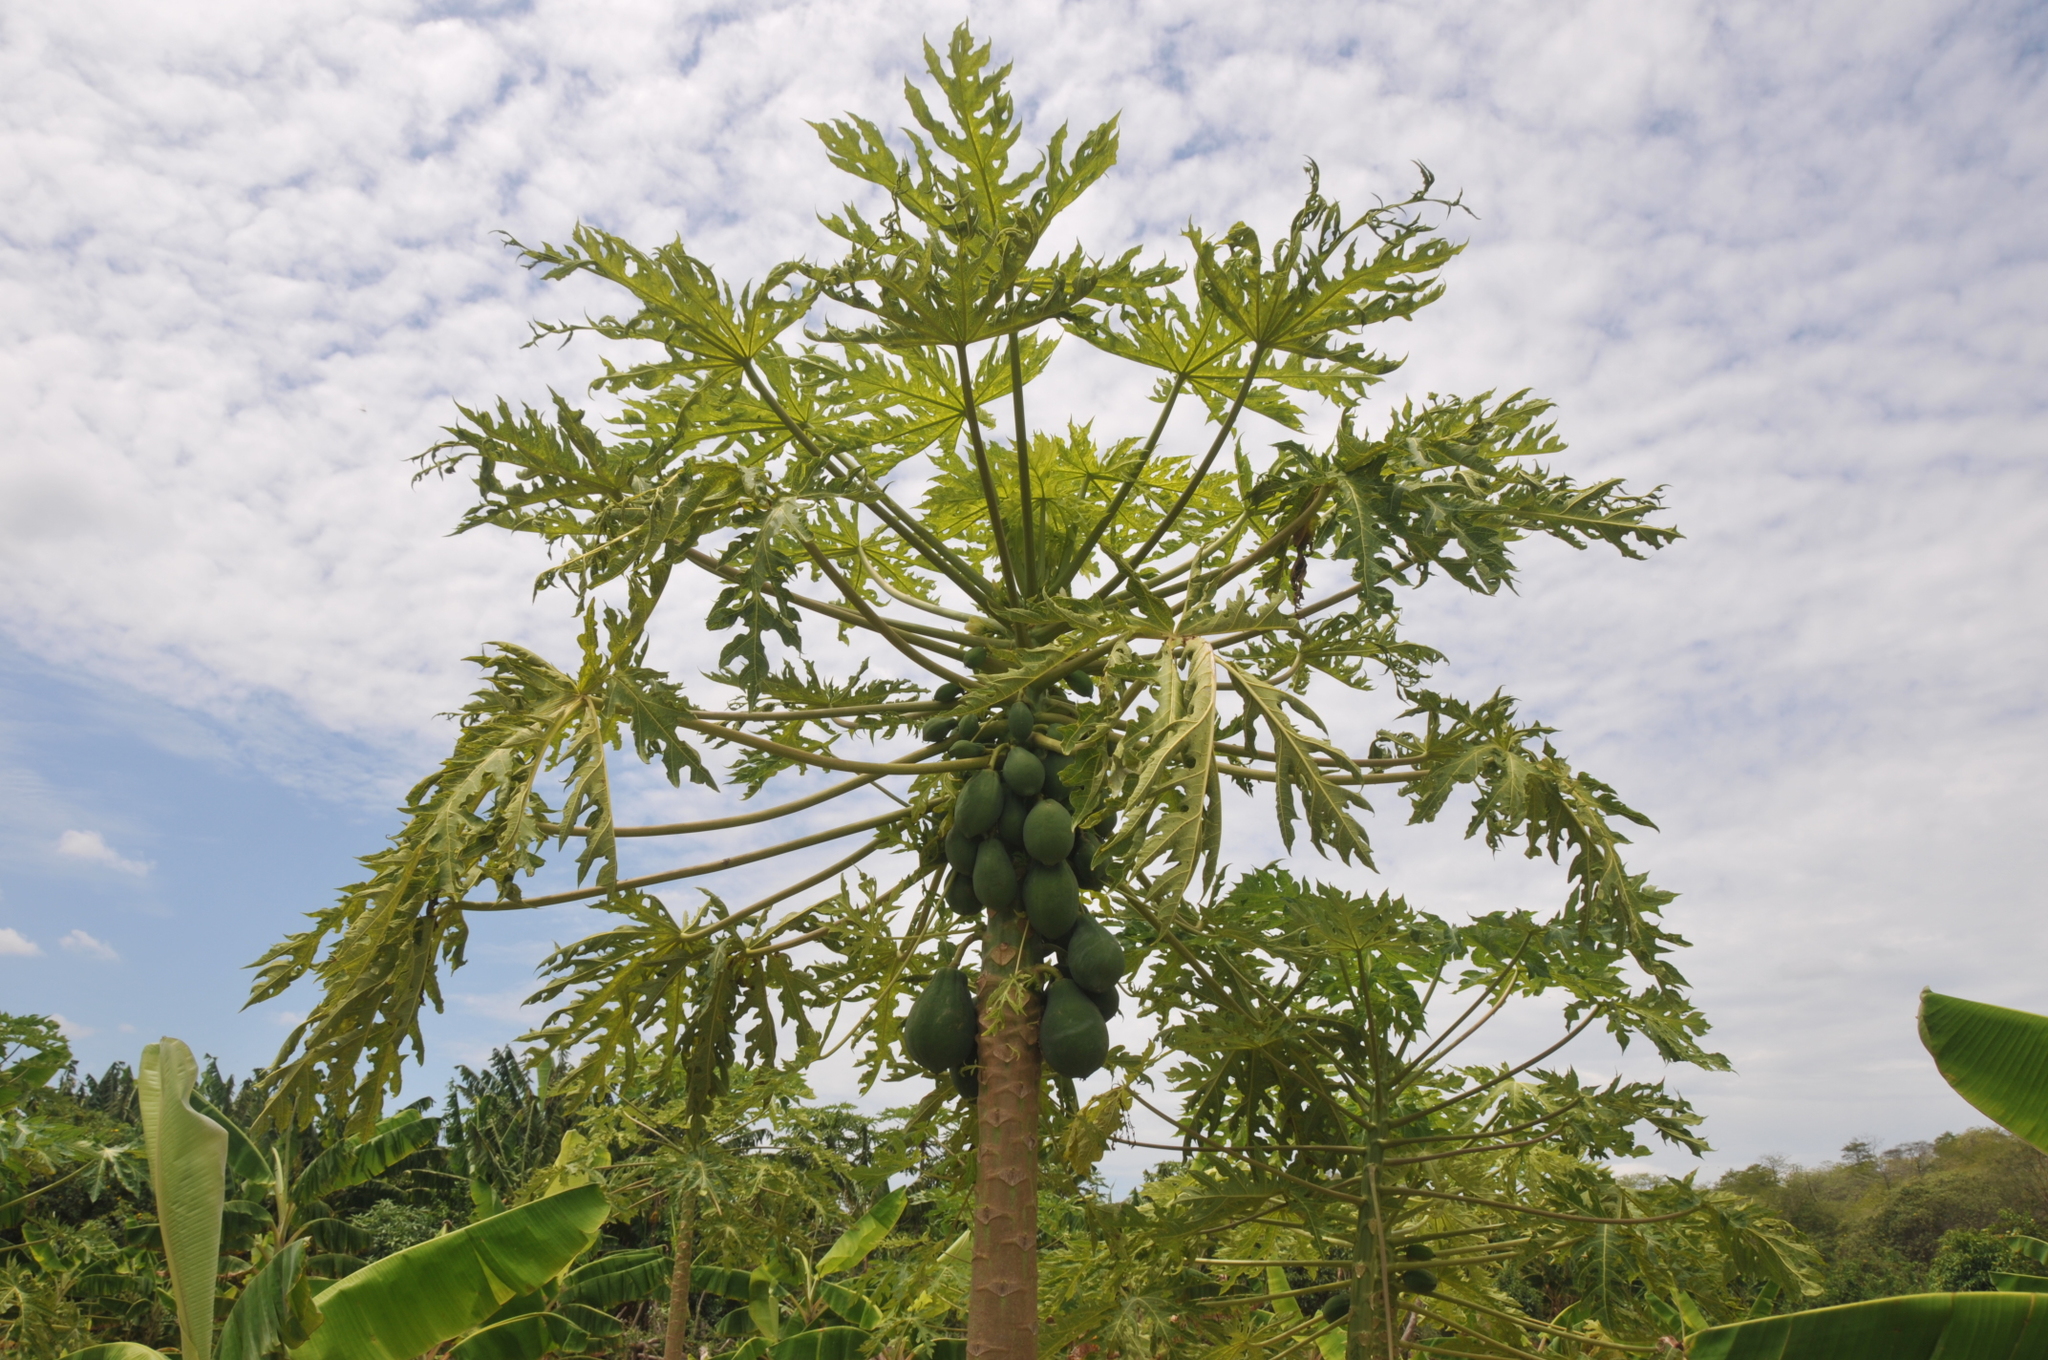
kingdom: Plantae
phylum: Tracheophyta
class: Magnoliopsida
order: Brassicales
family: Caricaceae
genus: Carica
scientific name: Carica papaya
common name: Papaya
